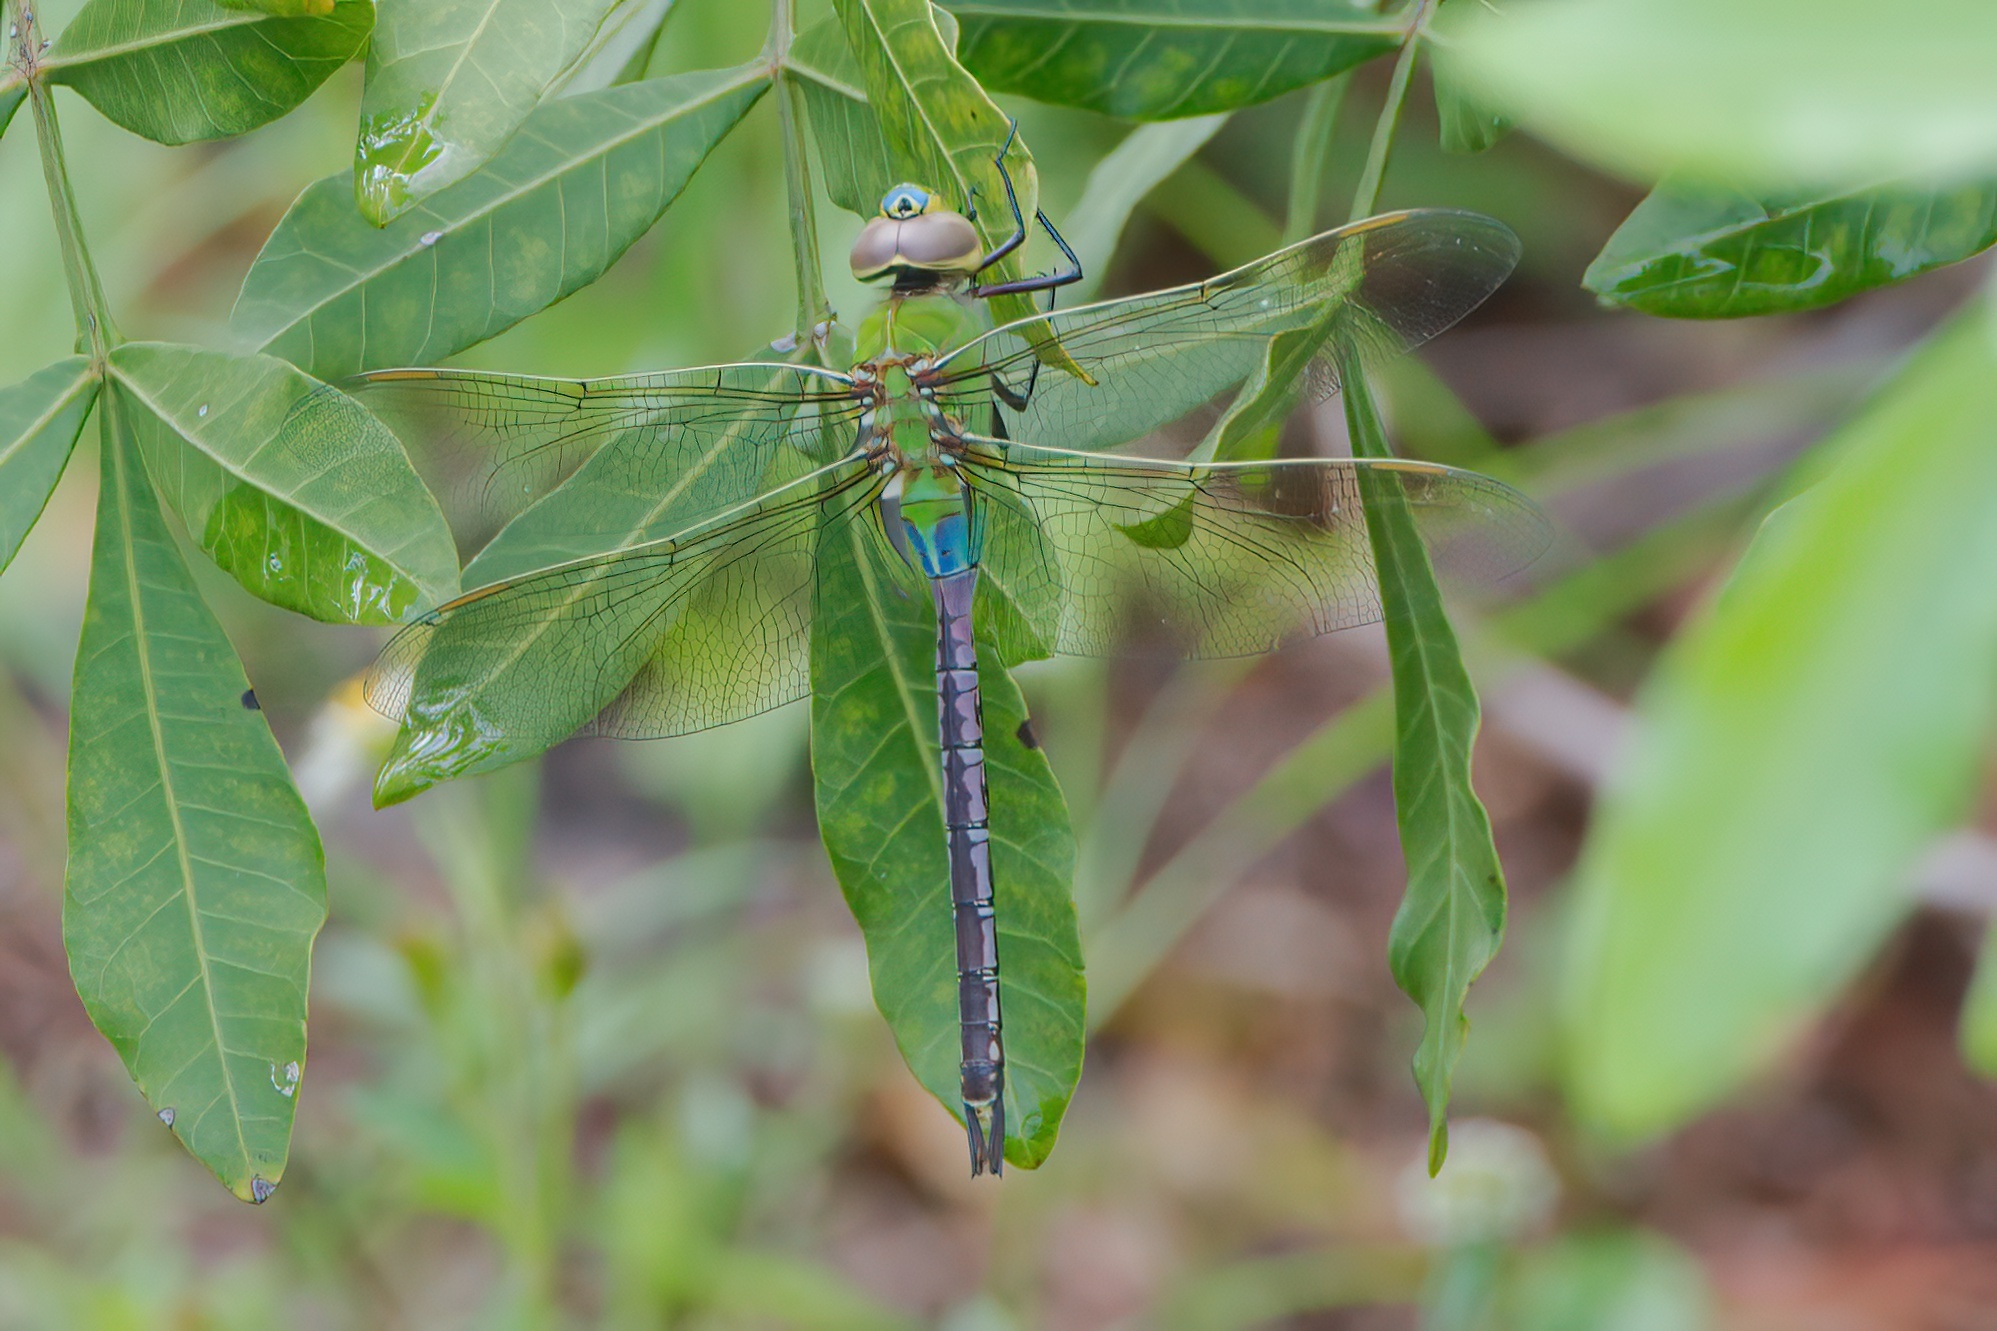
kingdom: Animalia
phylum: Arthropoda
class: Insecta
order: Odonata
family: Aeshnidae
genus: Anax
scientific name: Anax junius
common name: Common green darner
